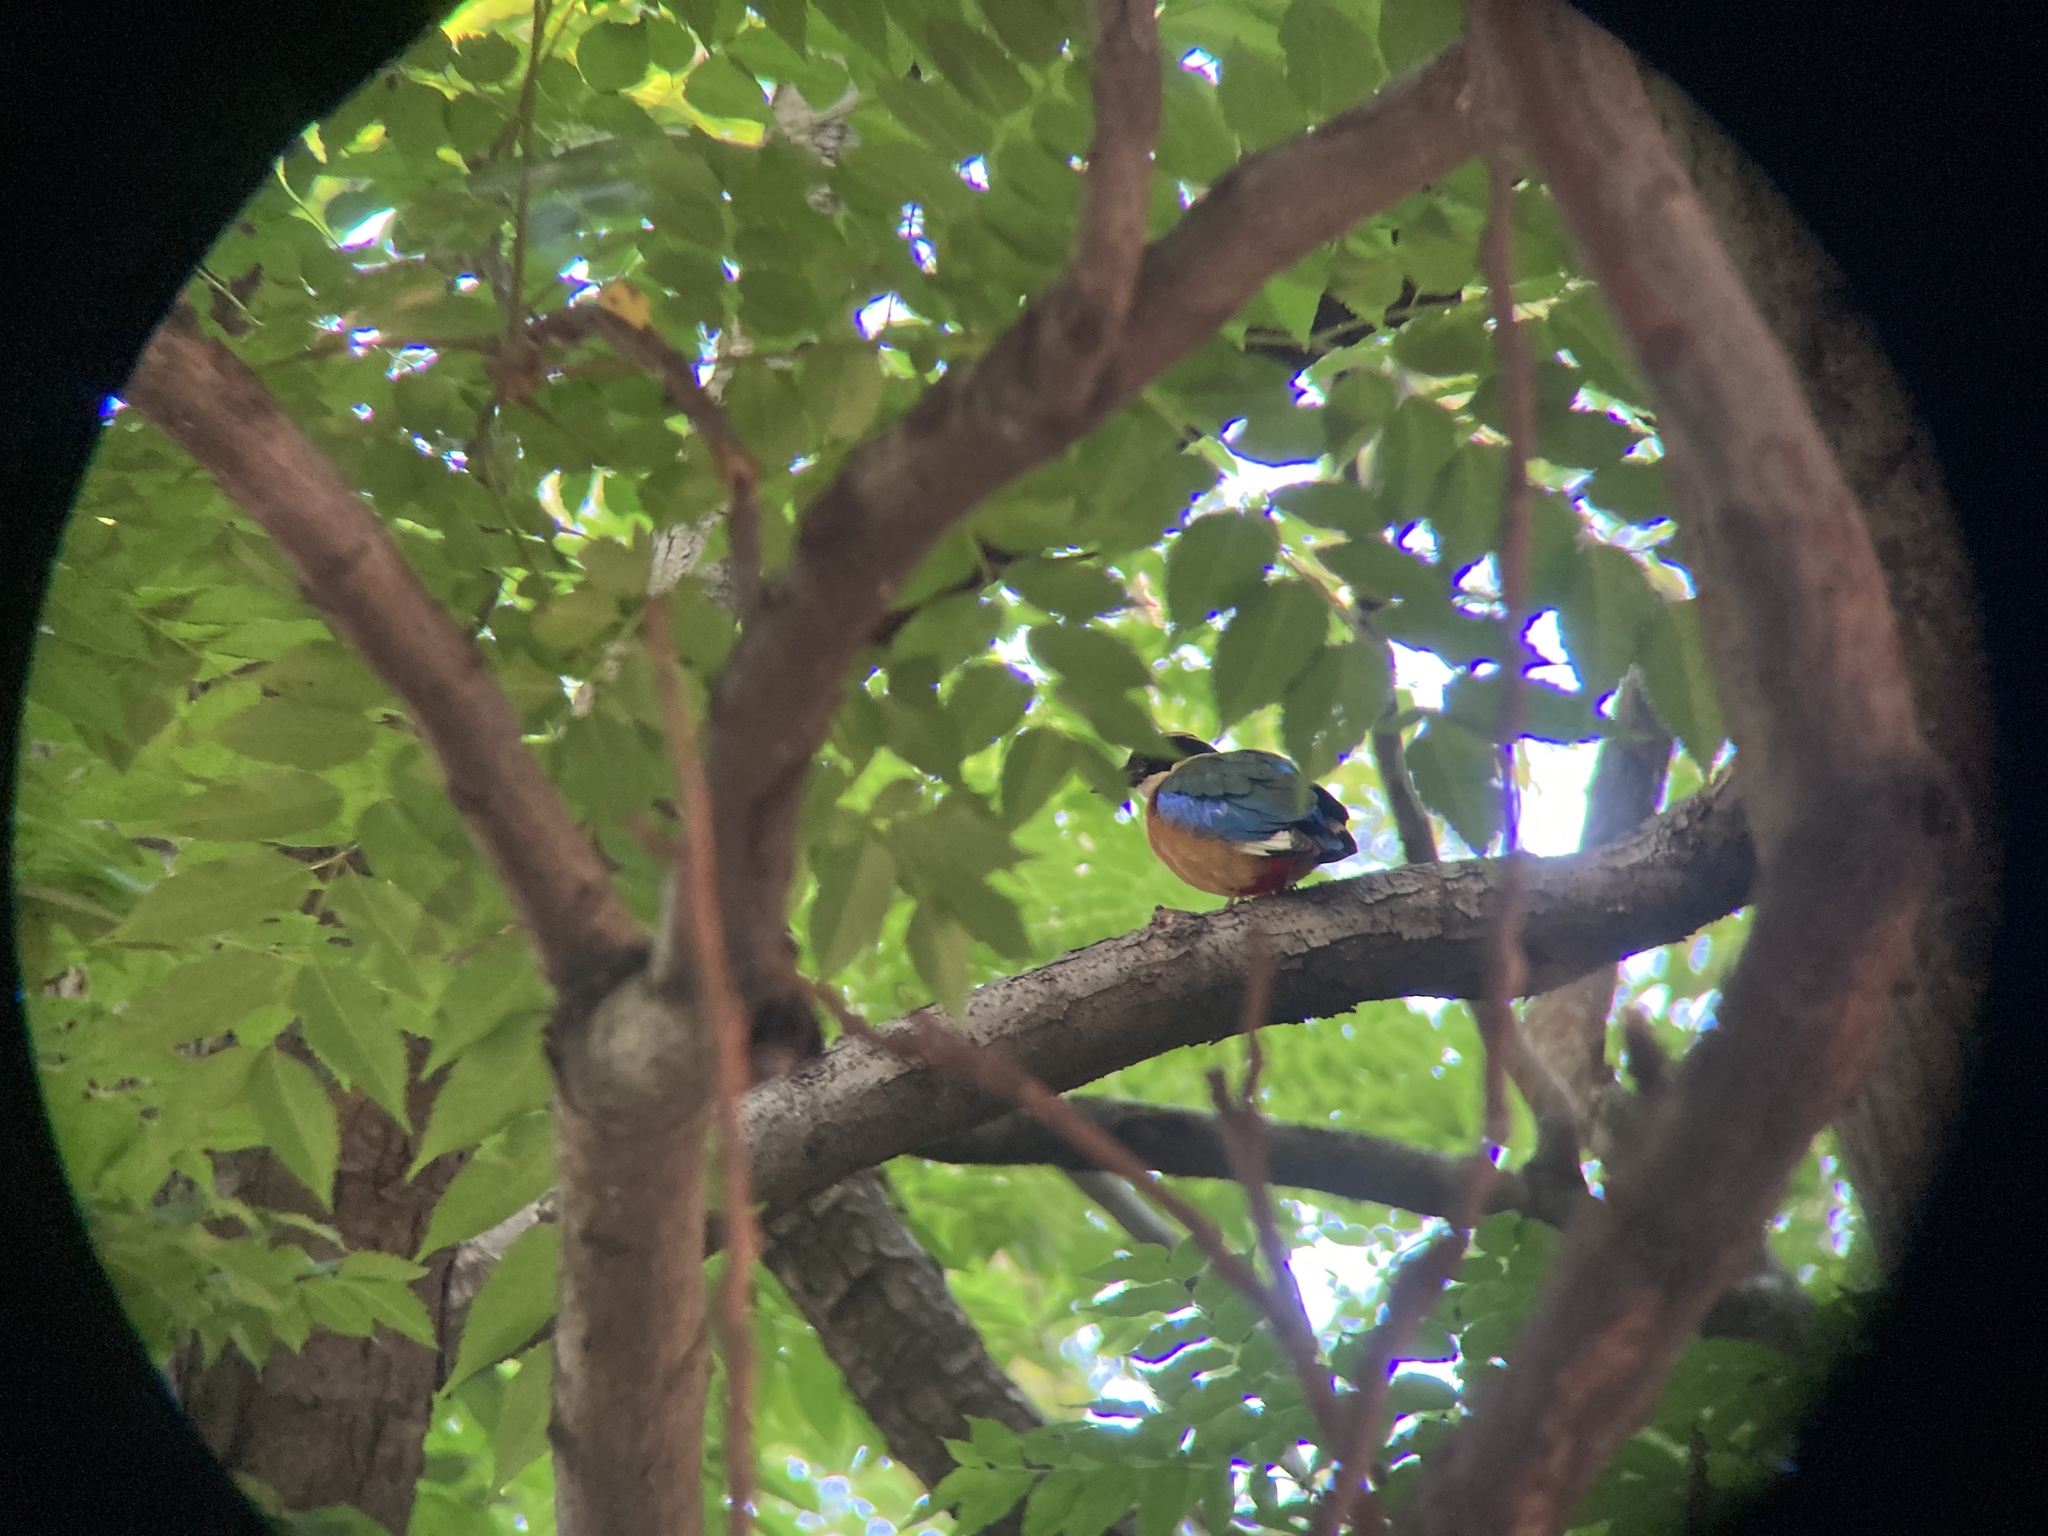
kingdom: Animalia
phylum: Chordata
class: Aves
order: Passeriformes
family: Pittidae
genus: Pitta
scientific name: Pitta moluccensis
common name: Blue-winged pitta
